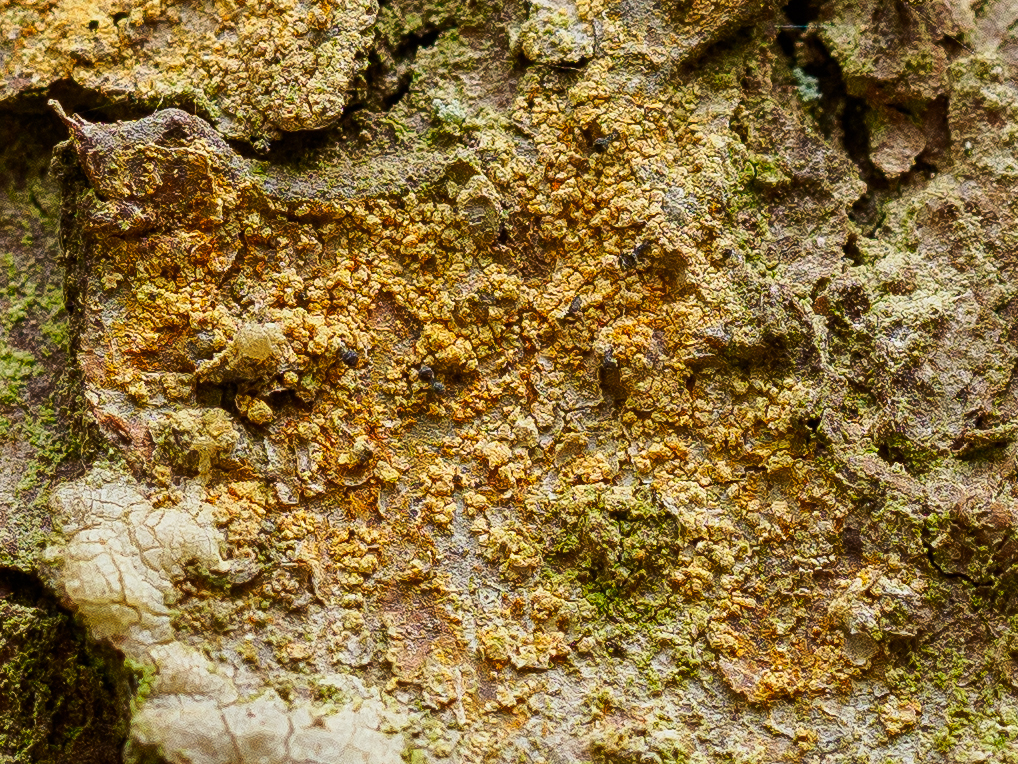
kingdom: Fungi
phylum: Ascomycota
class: Coniocybomycetes
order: Coniocybales
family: Coniocybaceae
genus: Chaenotheca
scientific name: Chaenotheca ferruginea
